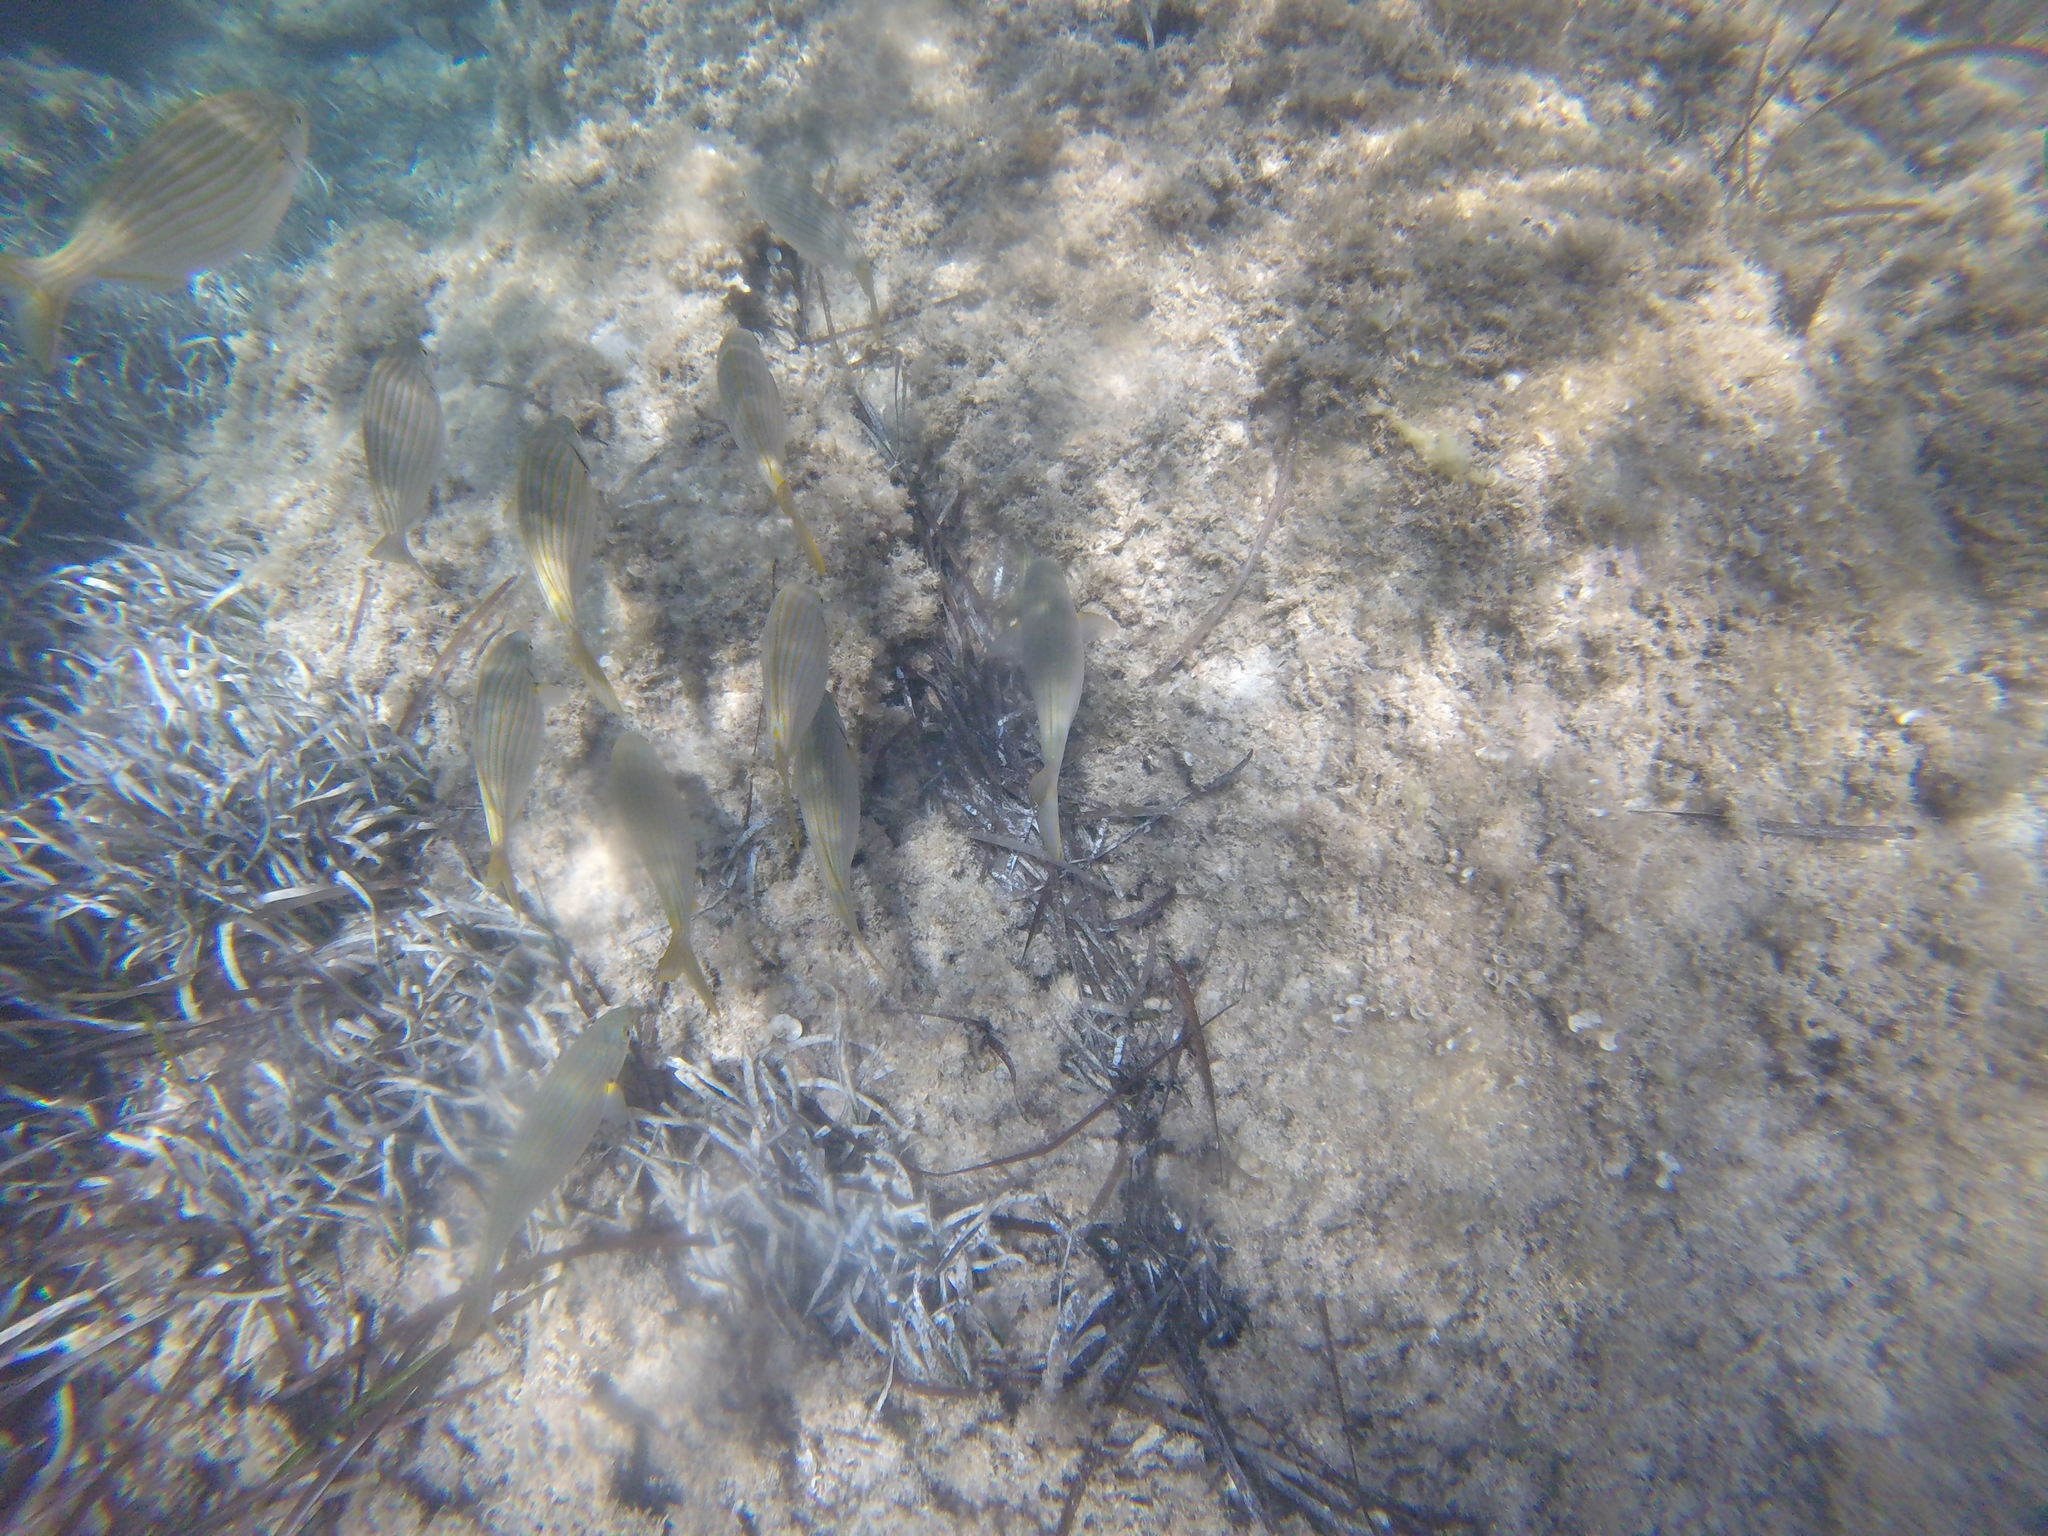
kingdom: Animalia
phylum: Chordata
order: Perciformes
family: Sparidae
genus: Sarpa
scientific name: Sarpa salpa
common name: Salema
